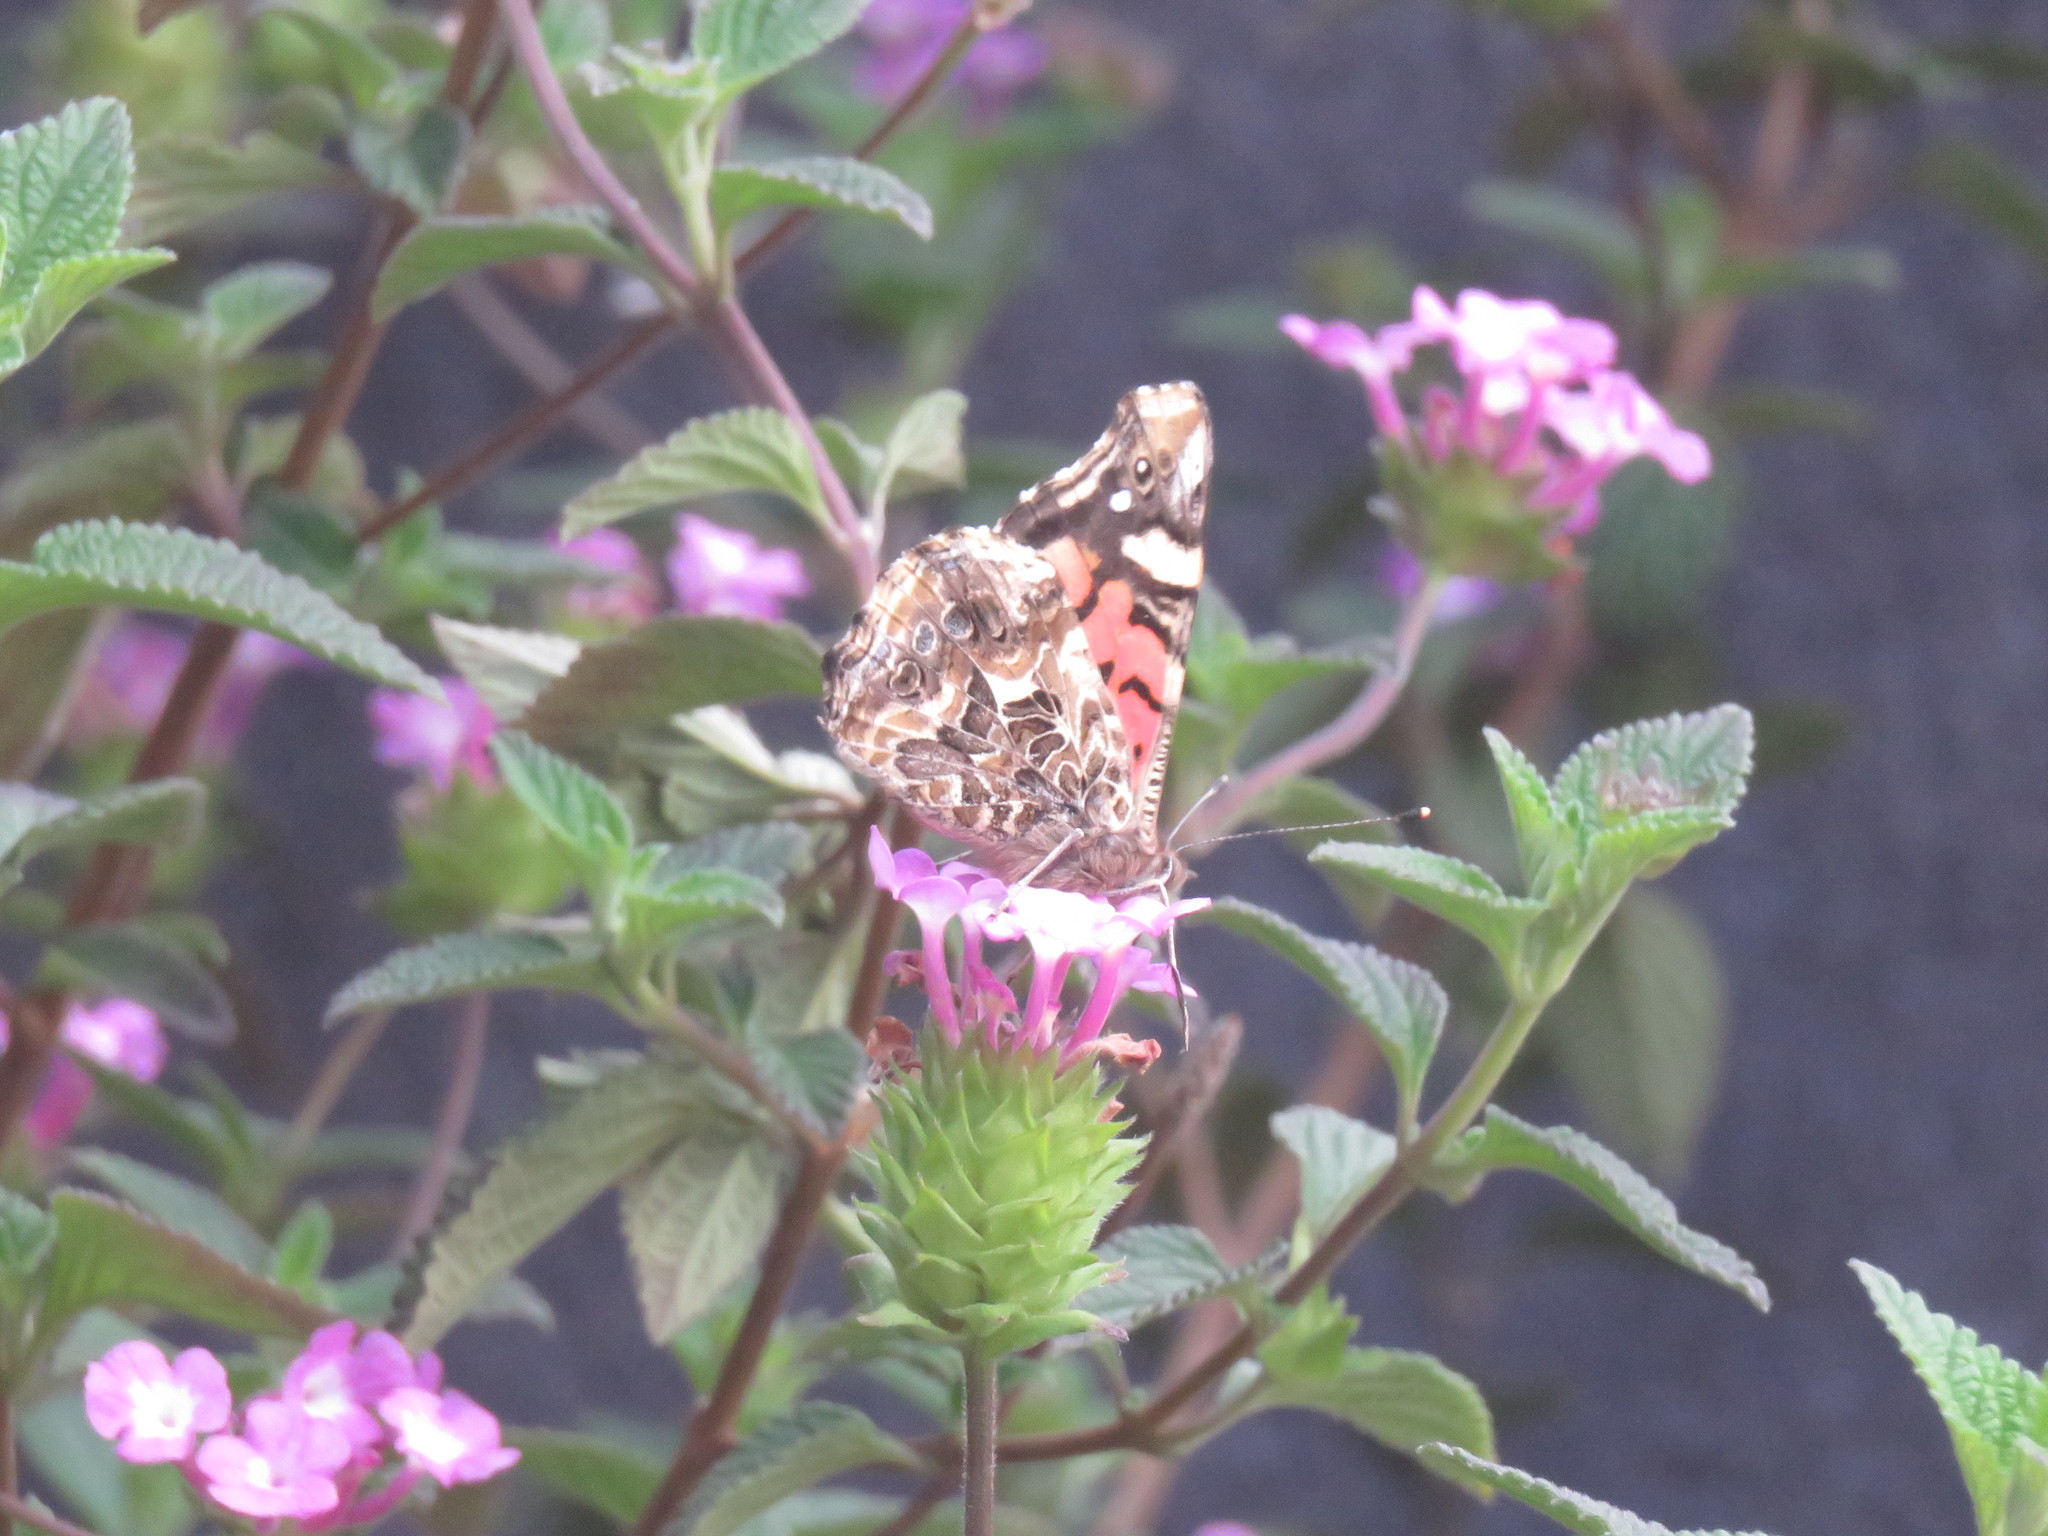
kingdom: Animalia
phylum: Arthropoda
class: Insecta
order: Lepidoptera
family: Nymphalidae
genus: Vanessa
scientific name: Vanessa carye
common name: Subtropical lady
